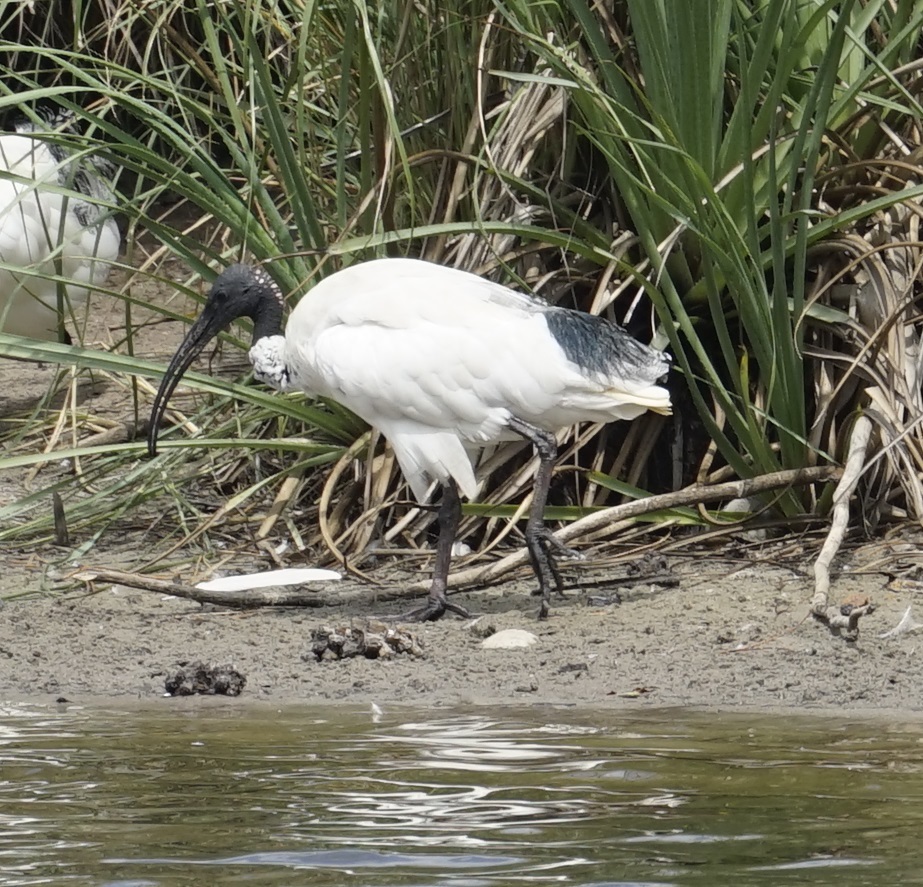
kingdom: Animalia
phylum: Chordata
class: Aves
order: Pelecaniformes
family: Threskiornithidae
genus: Threskiornis
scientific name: Threskiornis molucca
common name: Australian white ibis
